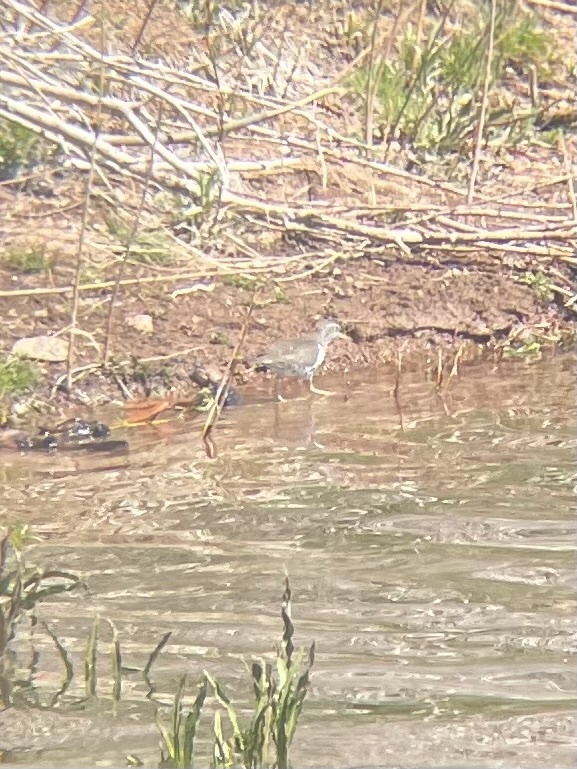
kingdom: Animalia
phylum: Chordata
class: Aves
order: Charadriiformes
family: Scolopacidae
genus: Actitis
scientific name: Actitis macularius
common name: Spotted sandpiper
